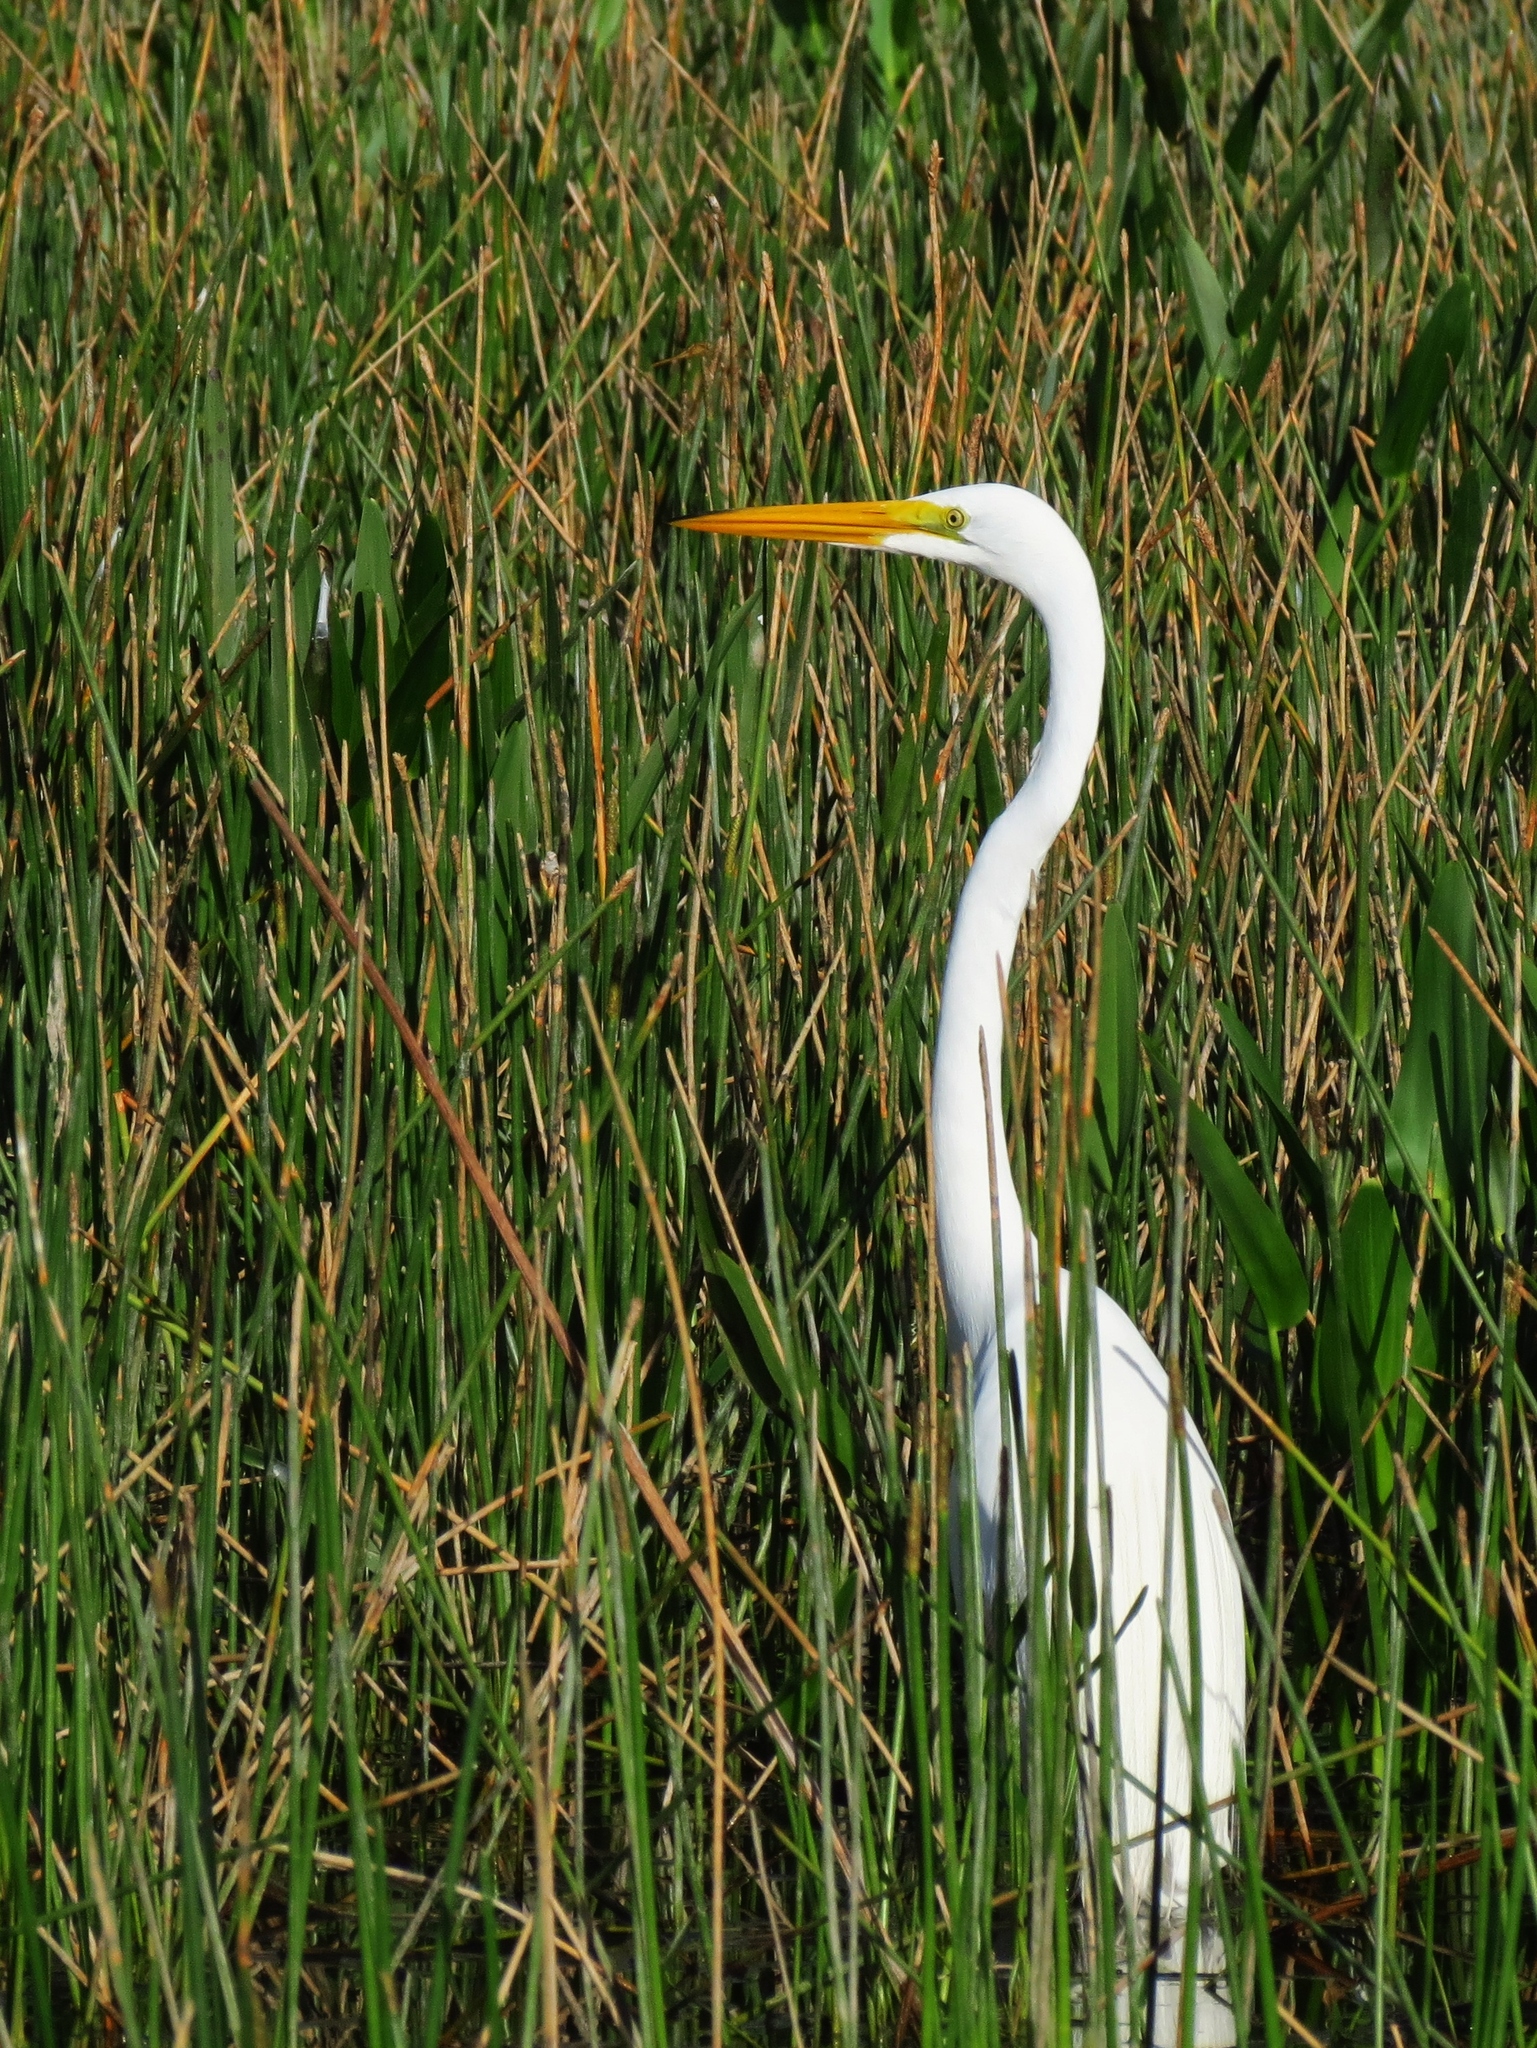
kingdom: Animalia
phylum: Chordata
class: Aves
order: Pelecaniformes
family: Ardeidae
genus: Ardea
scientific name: Ardea alba
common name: Great egret
